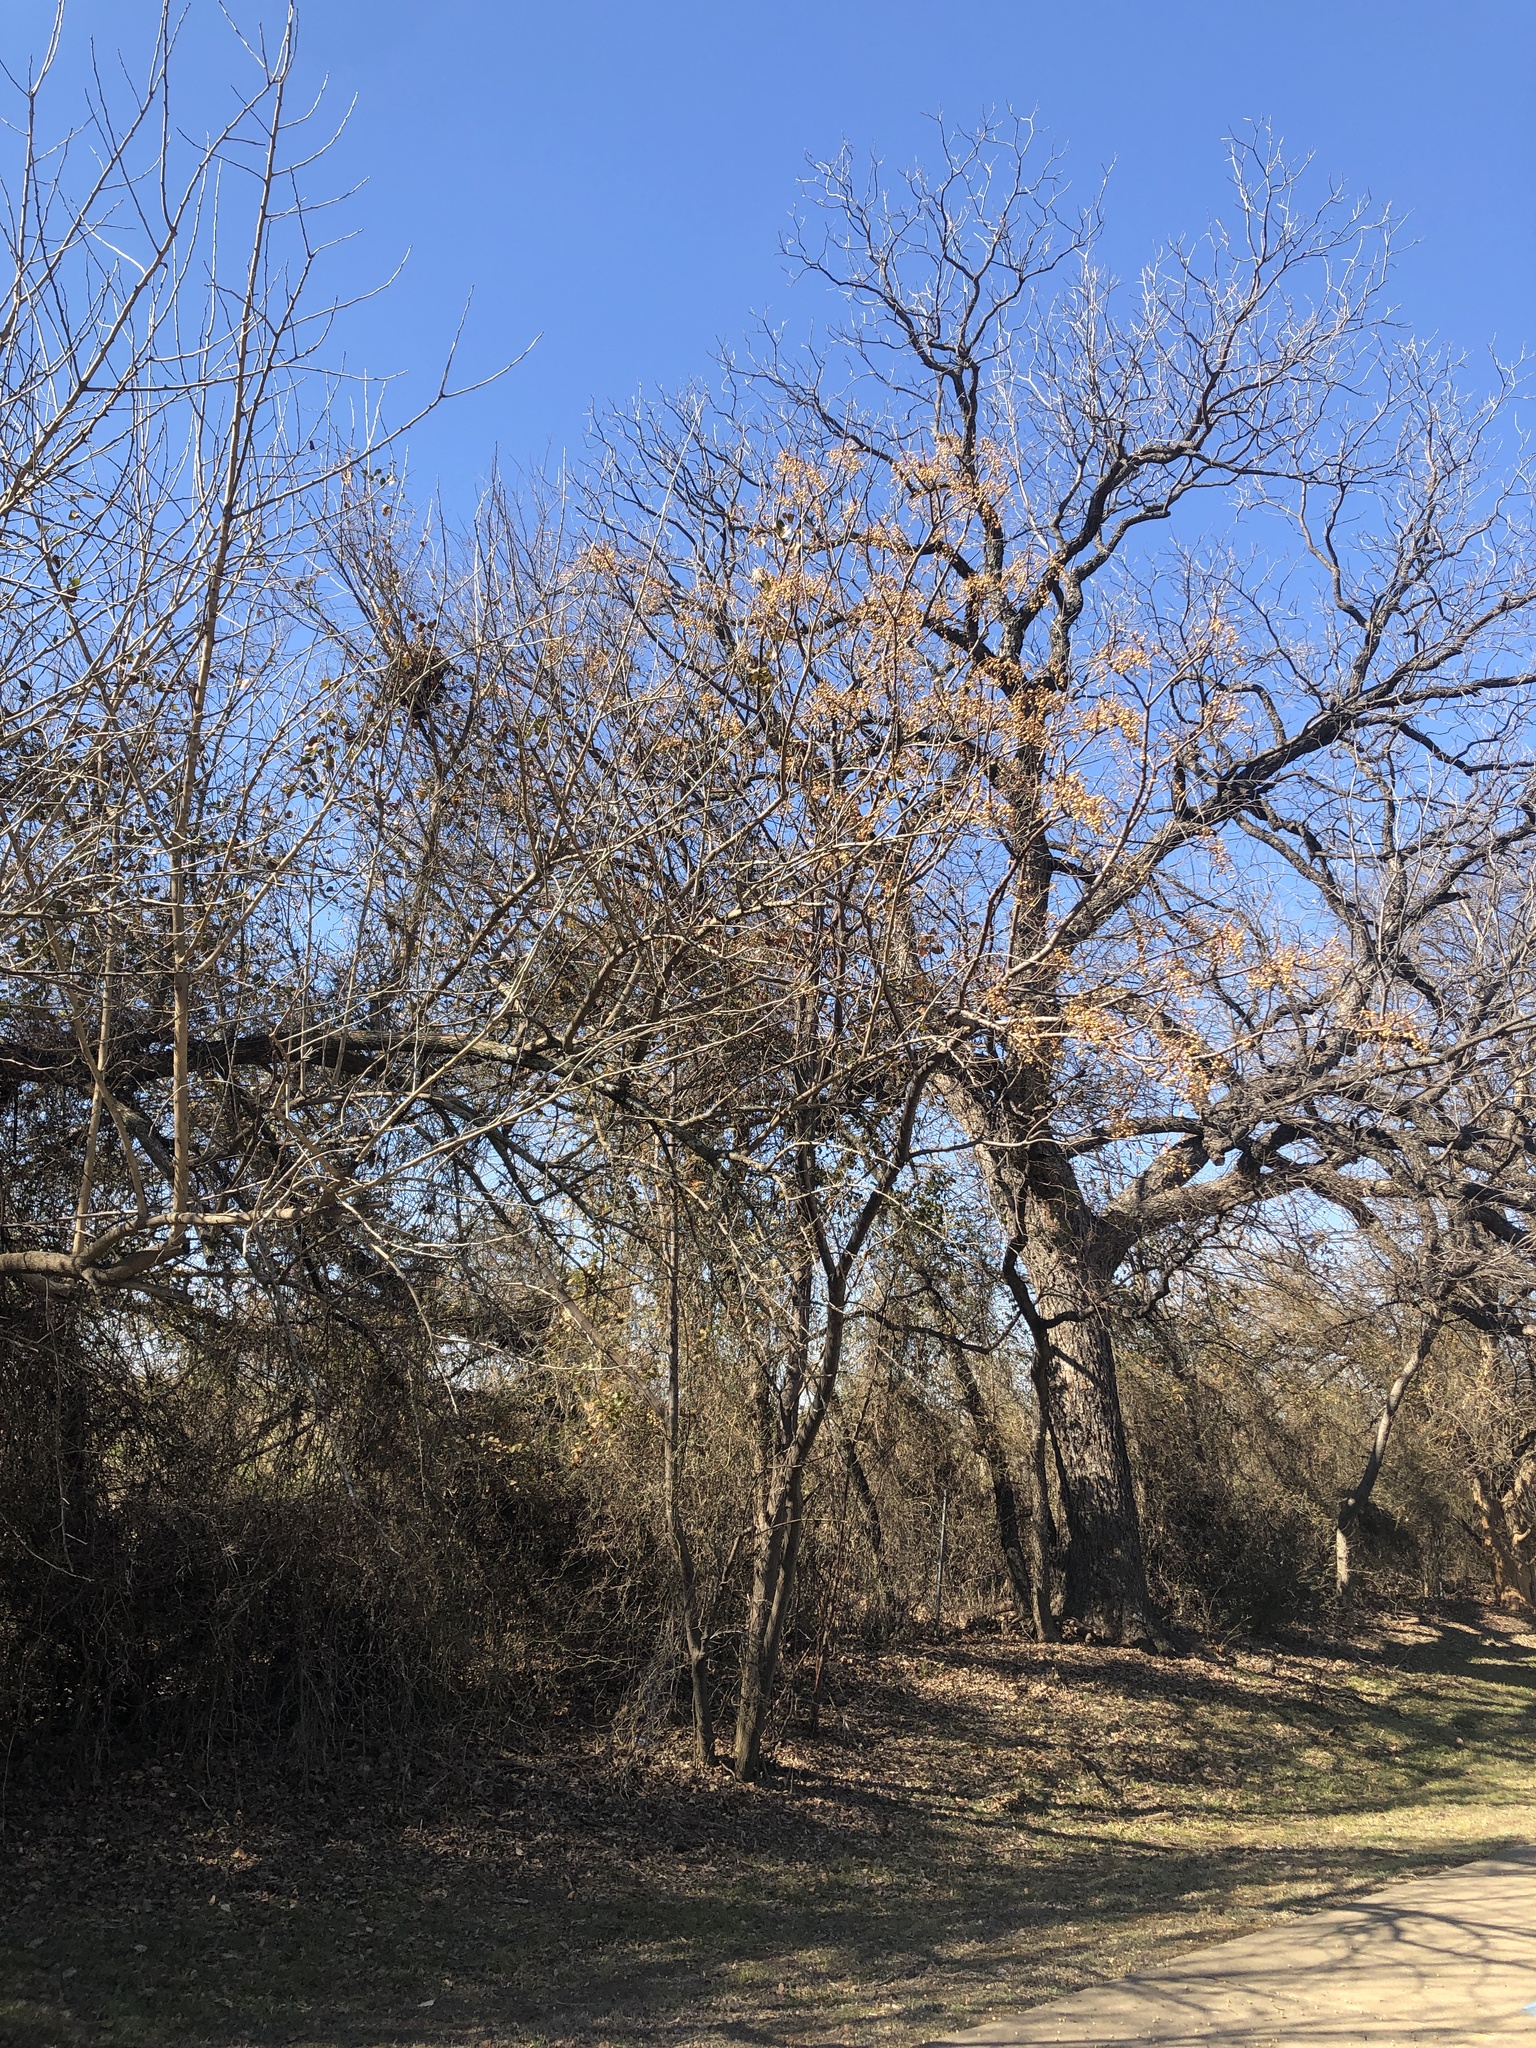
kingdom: Plantae
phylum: Tracheophyta
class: Magnoliopsida
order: Sapindales
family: Meliaceae
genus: Melia
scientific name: Melia azedarach
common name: Chinaberrytree
